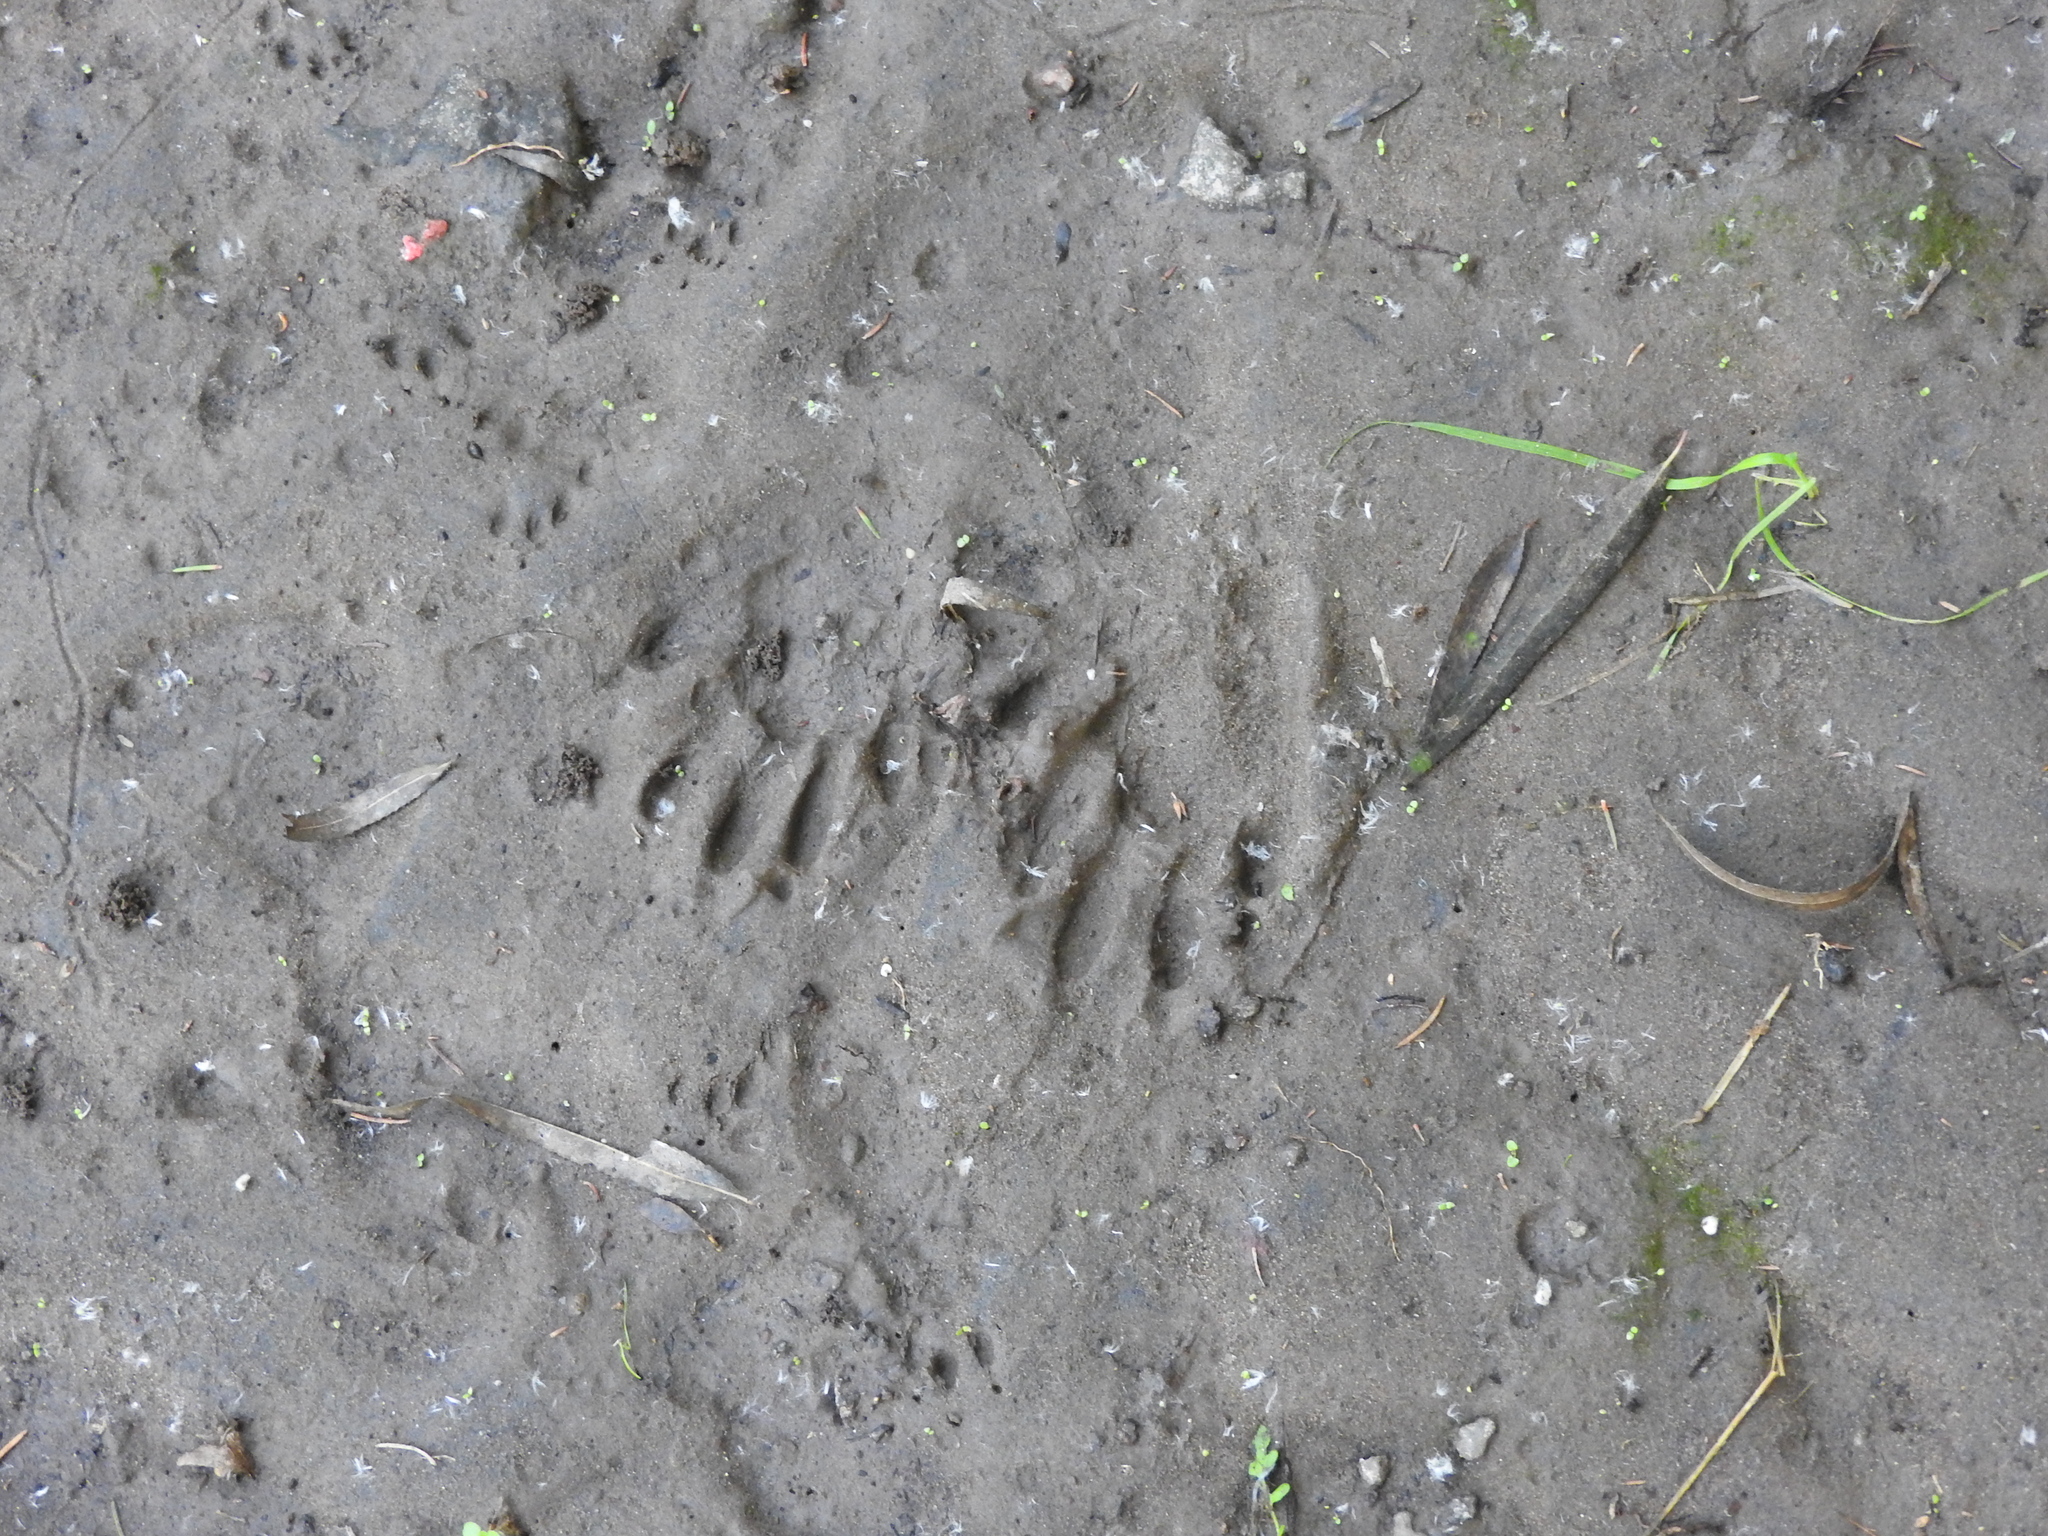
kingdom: Animalia
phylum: Chordata
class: Mammalia
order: Carnivora
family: Procyonidae
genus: Procyon
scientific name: Procyon lotor
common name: Raccoon
